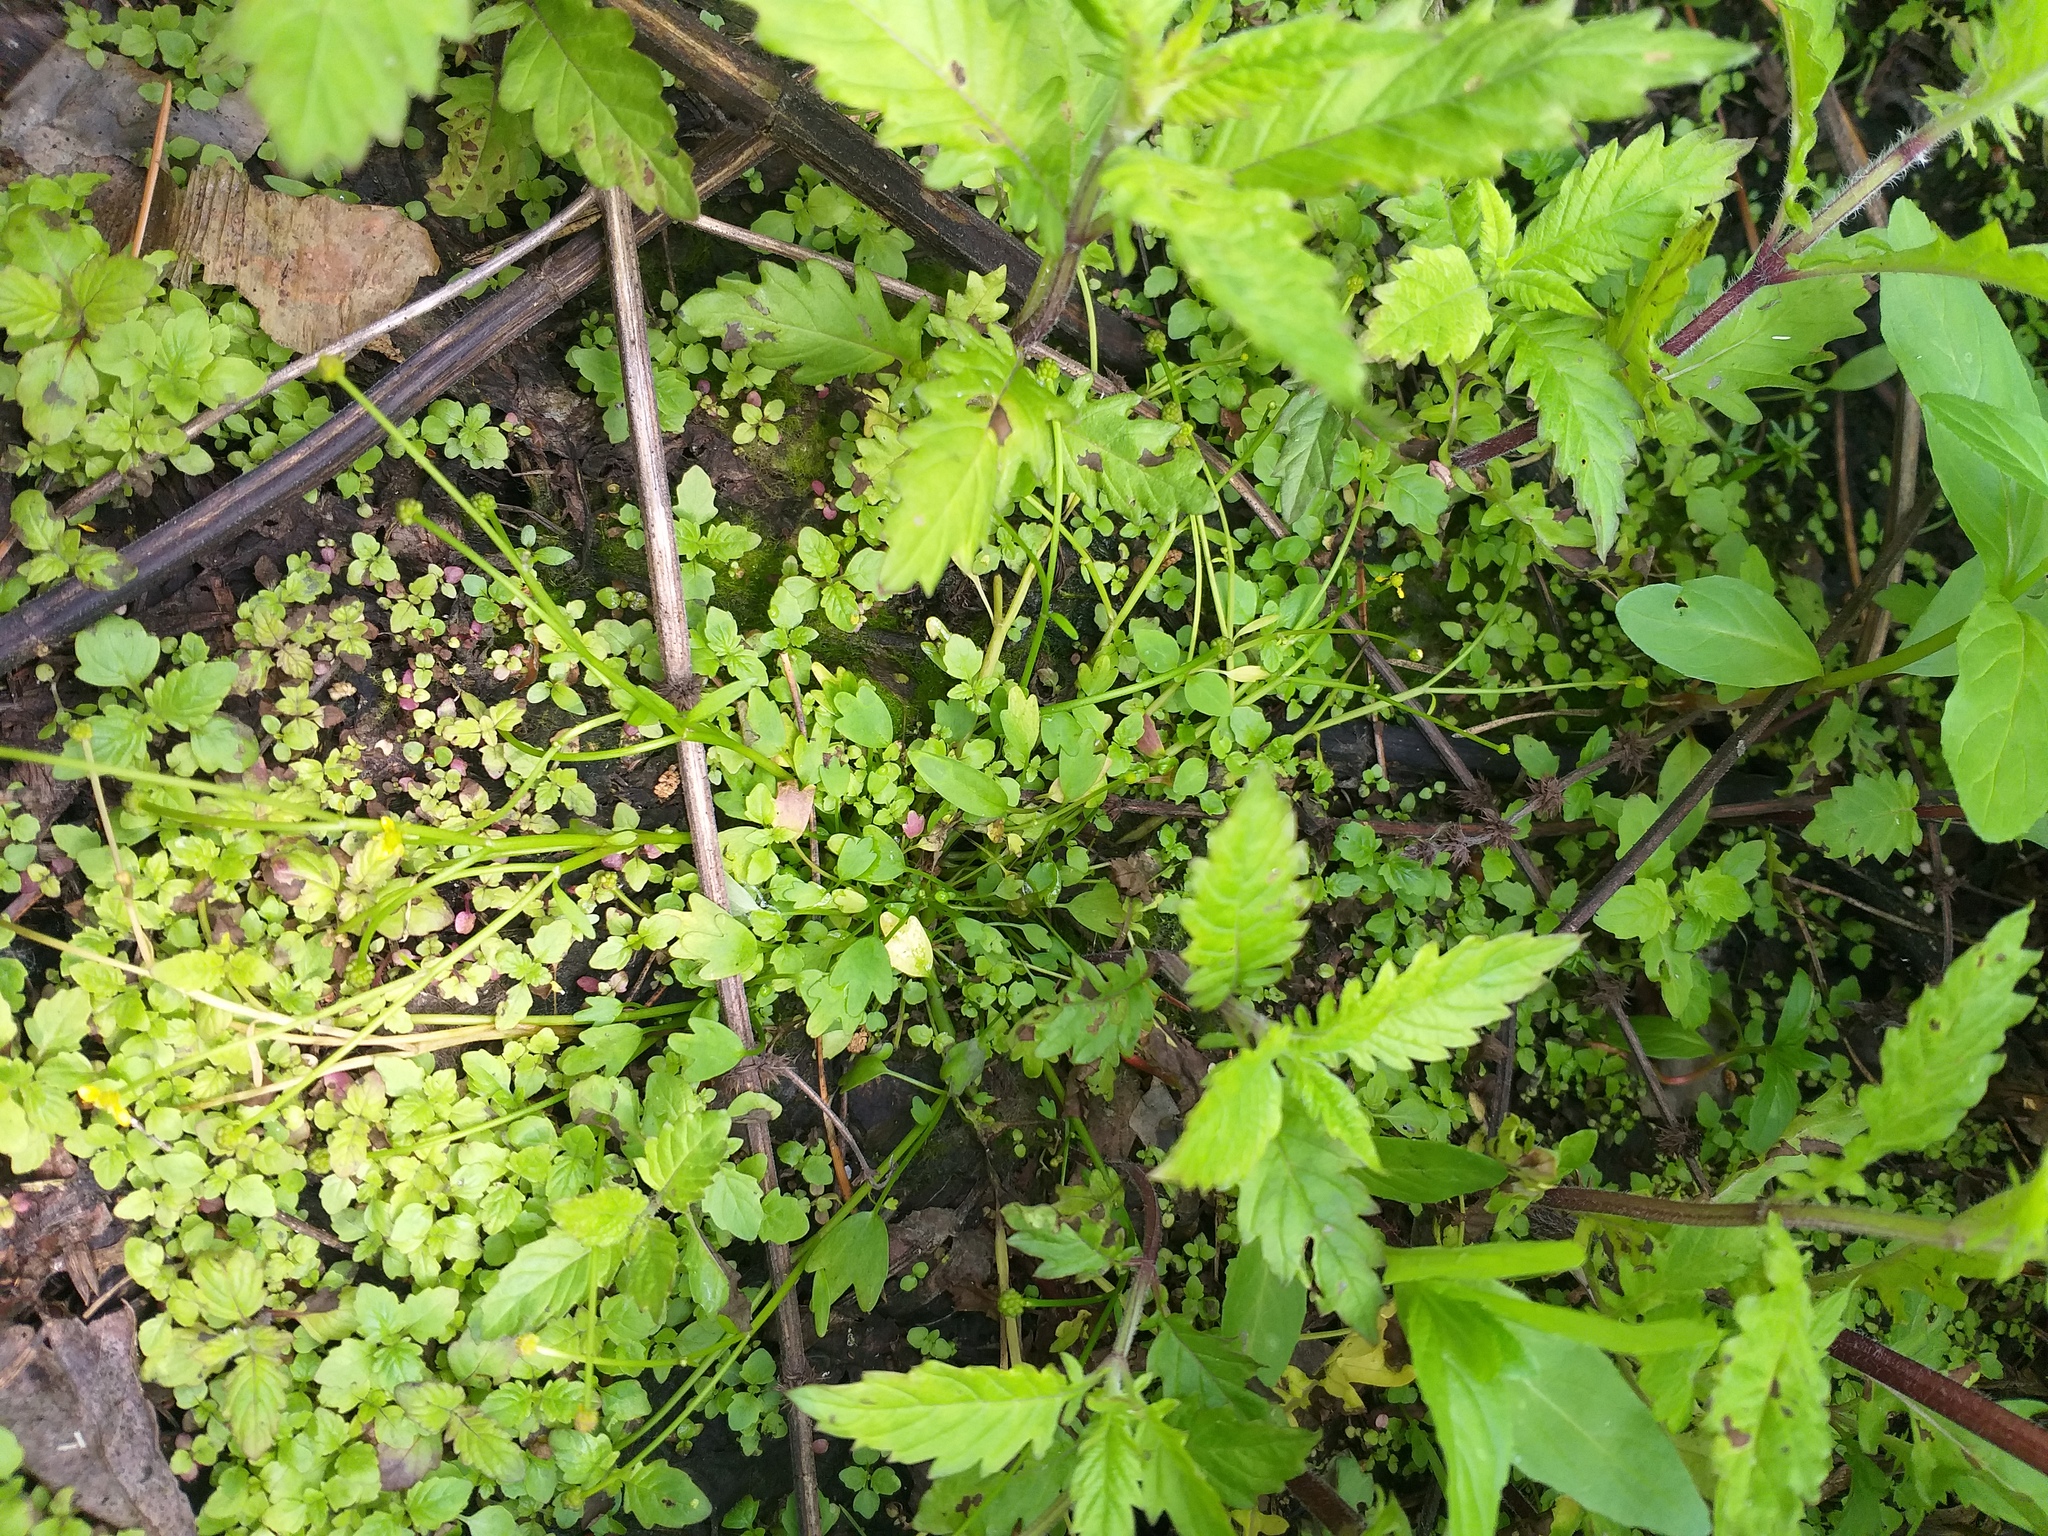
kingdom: Plantae
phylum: Tracheophyta
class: Magnoliopsida
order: Ranunculales
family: Ranunculaceae
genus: Ranunculus
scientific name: Ranunculus polyphyllus
